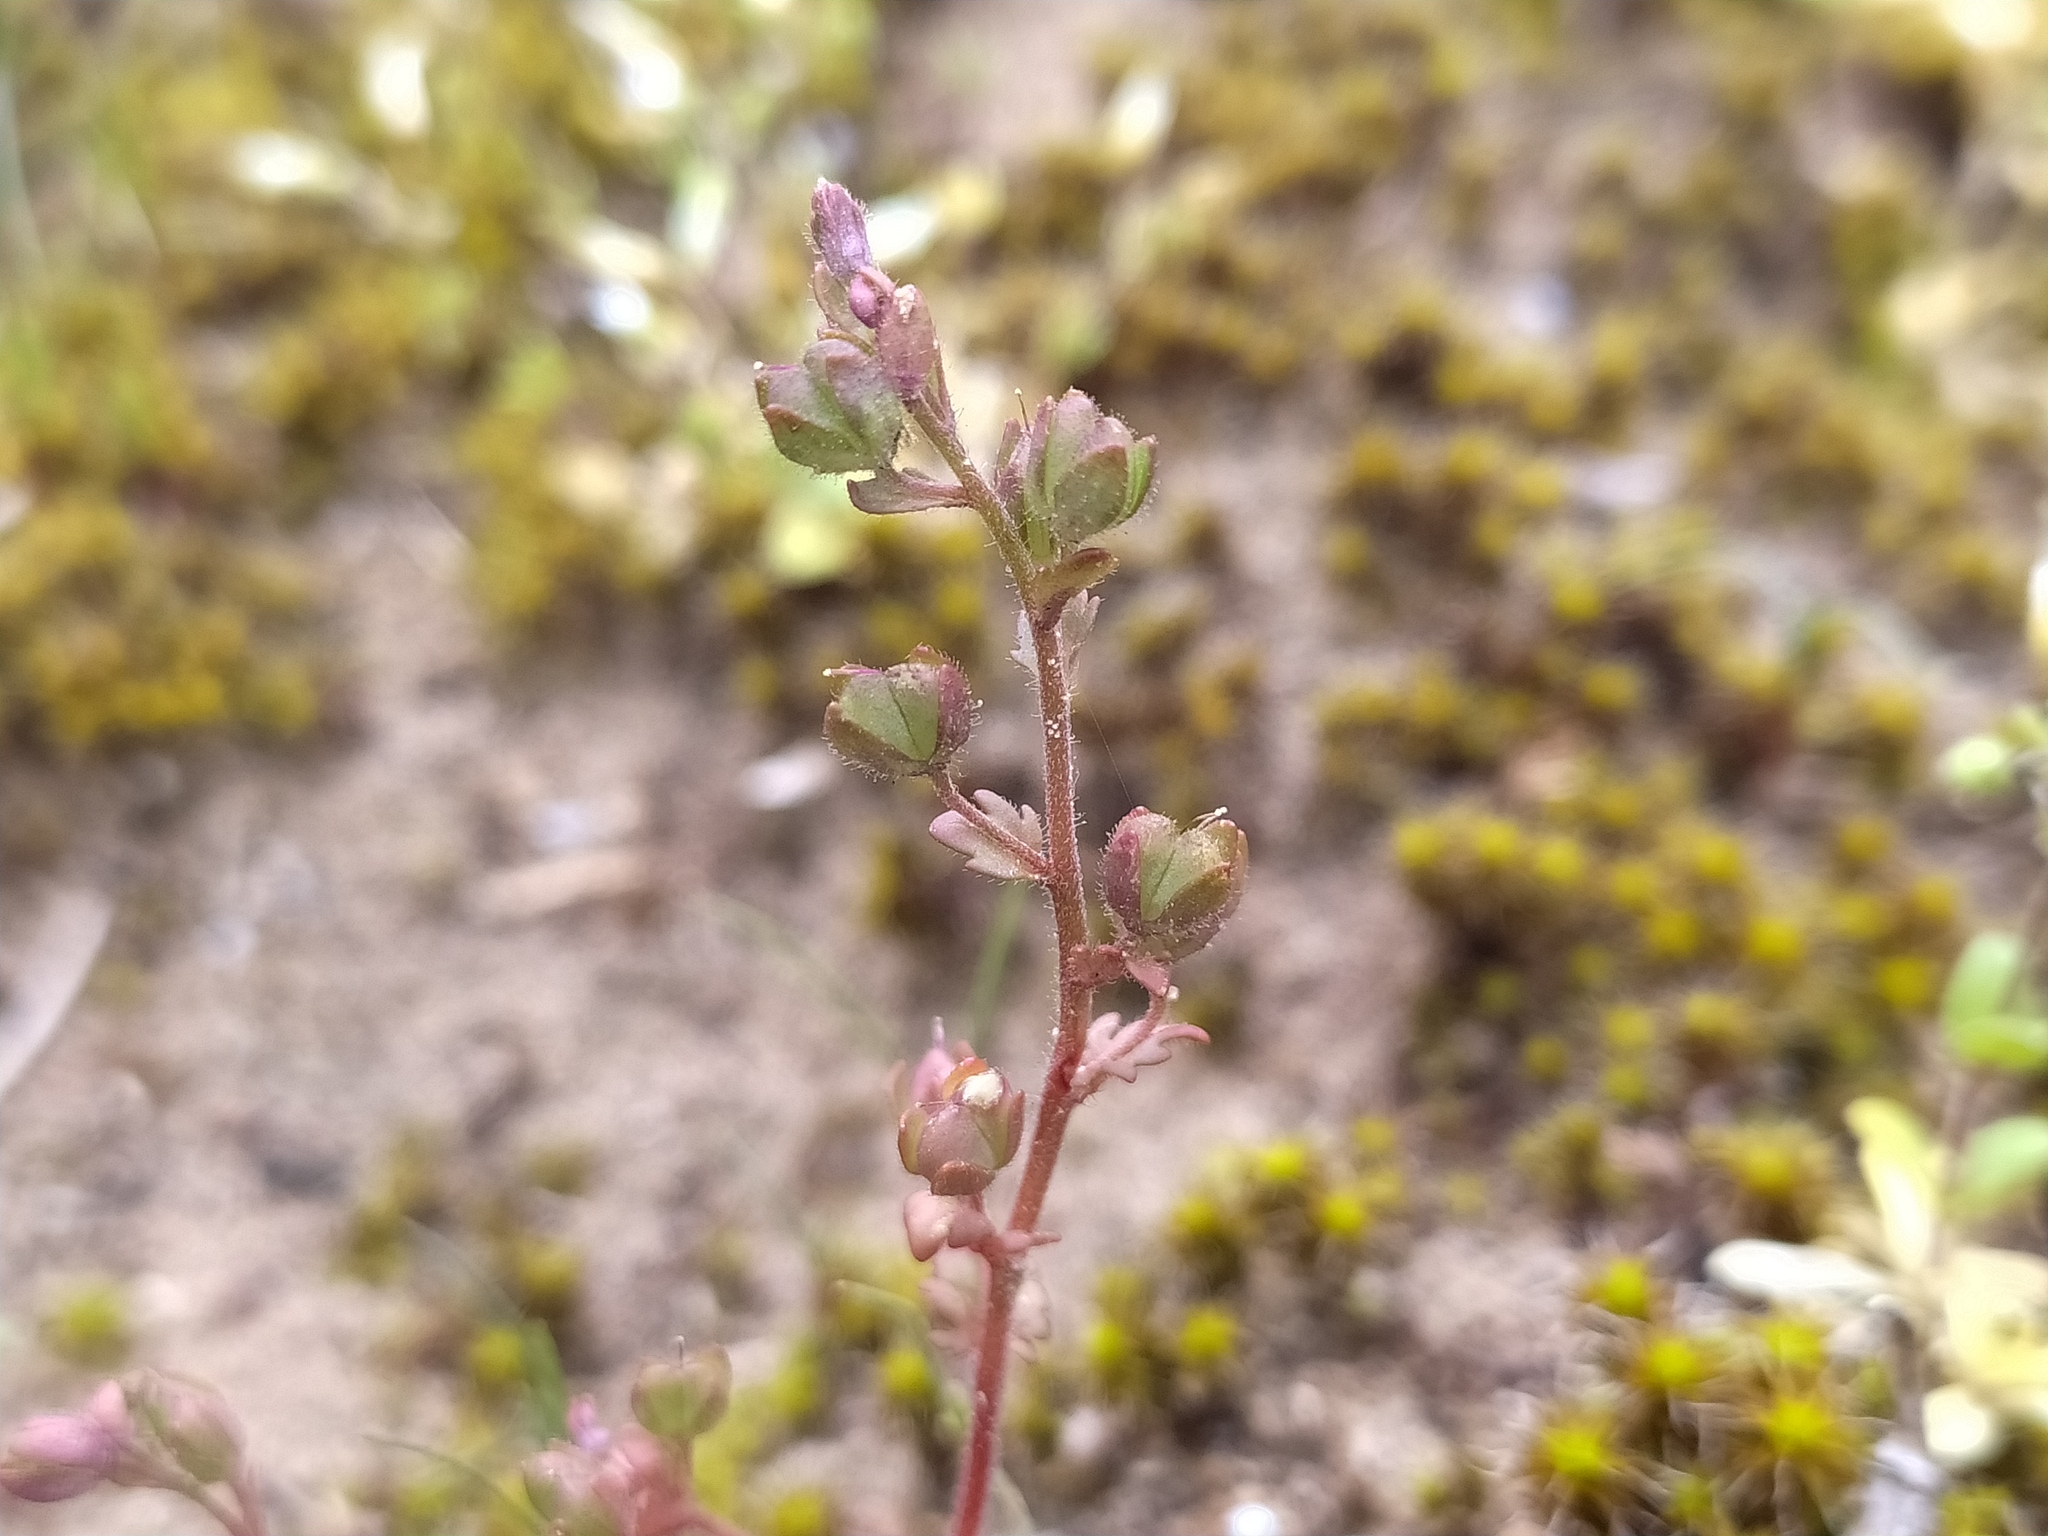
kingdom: Plantae
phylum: Tracheophyta
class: Magnoliopsida
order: Lamiales
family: Plantaginaceae
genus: Veronica
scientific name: Veronica praecox
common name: Breckland speedwell
